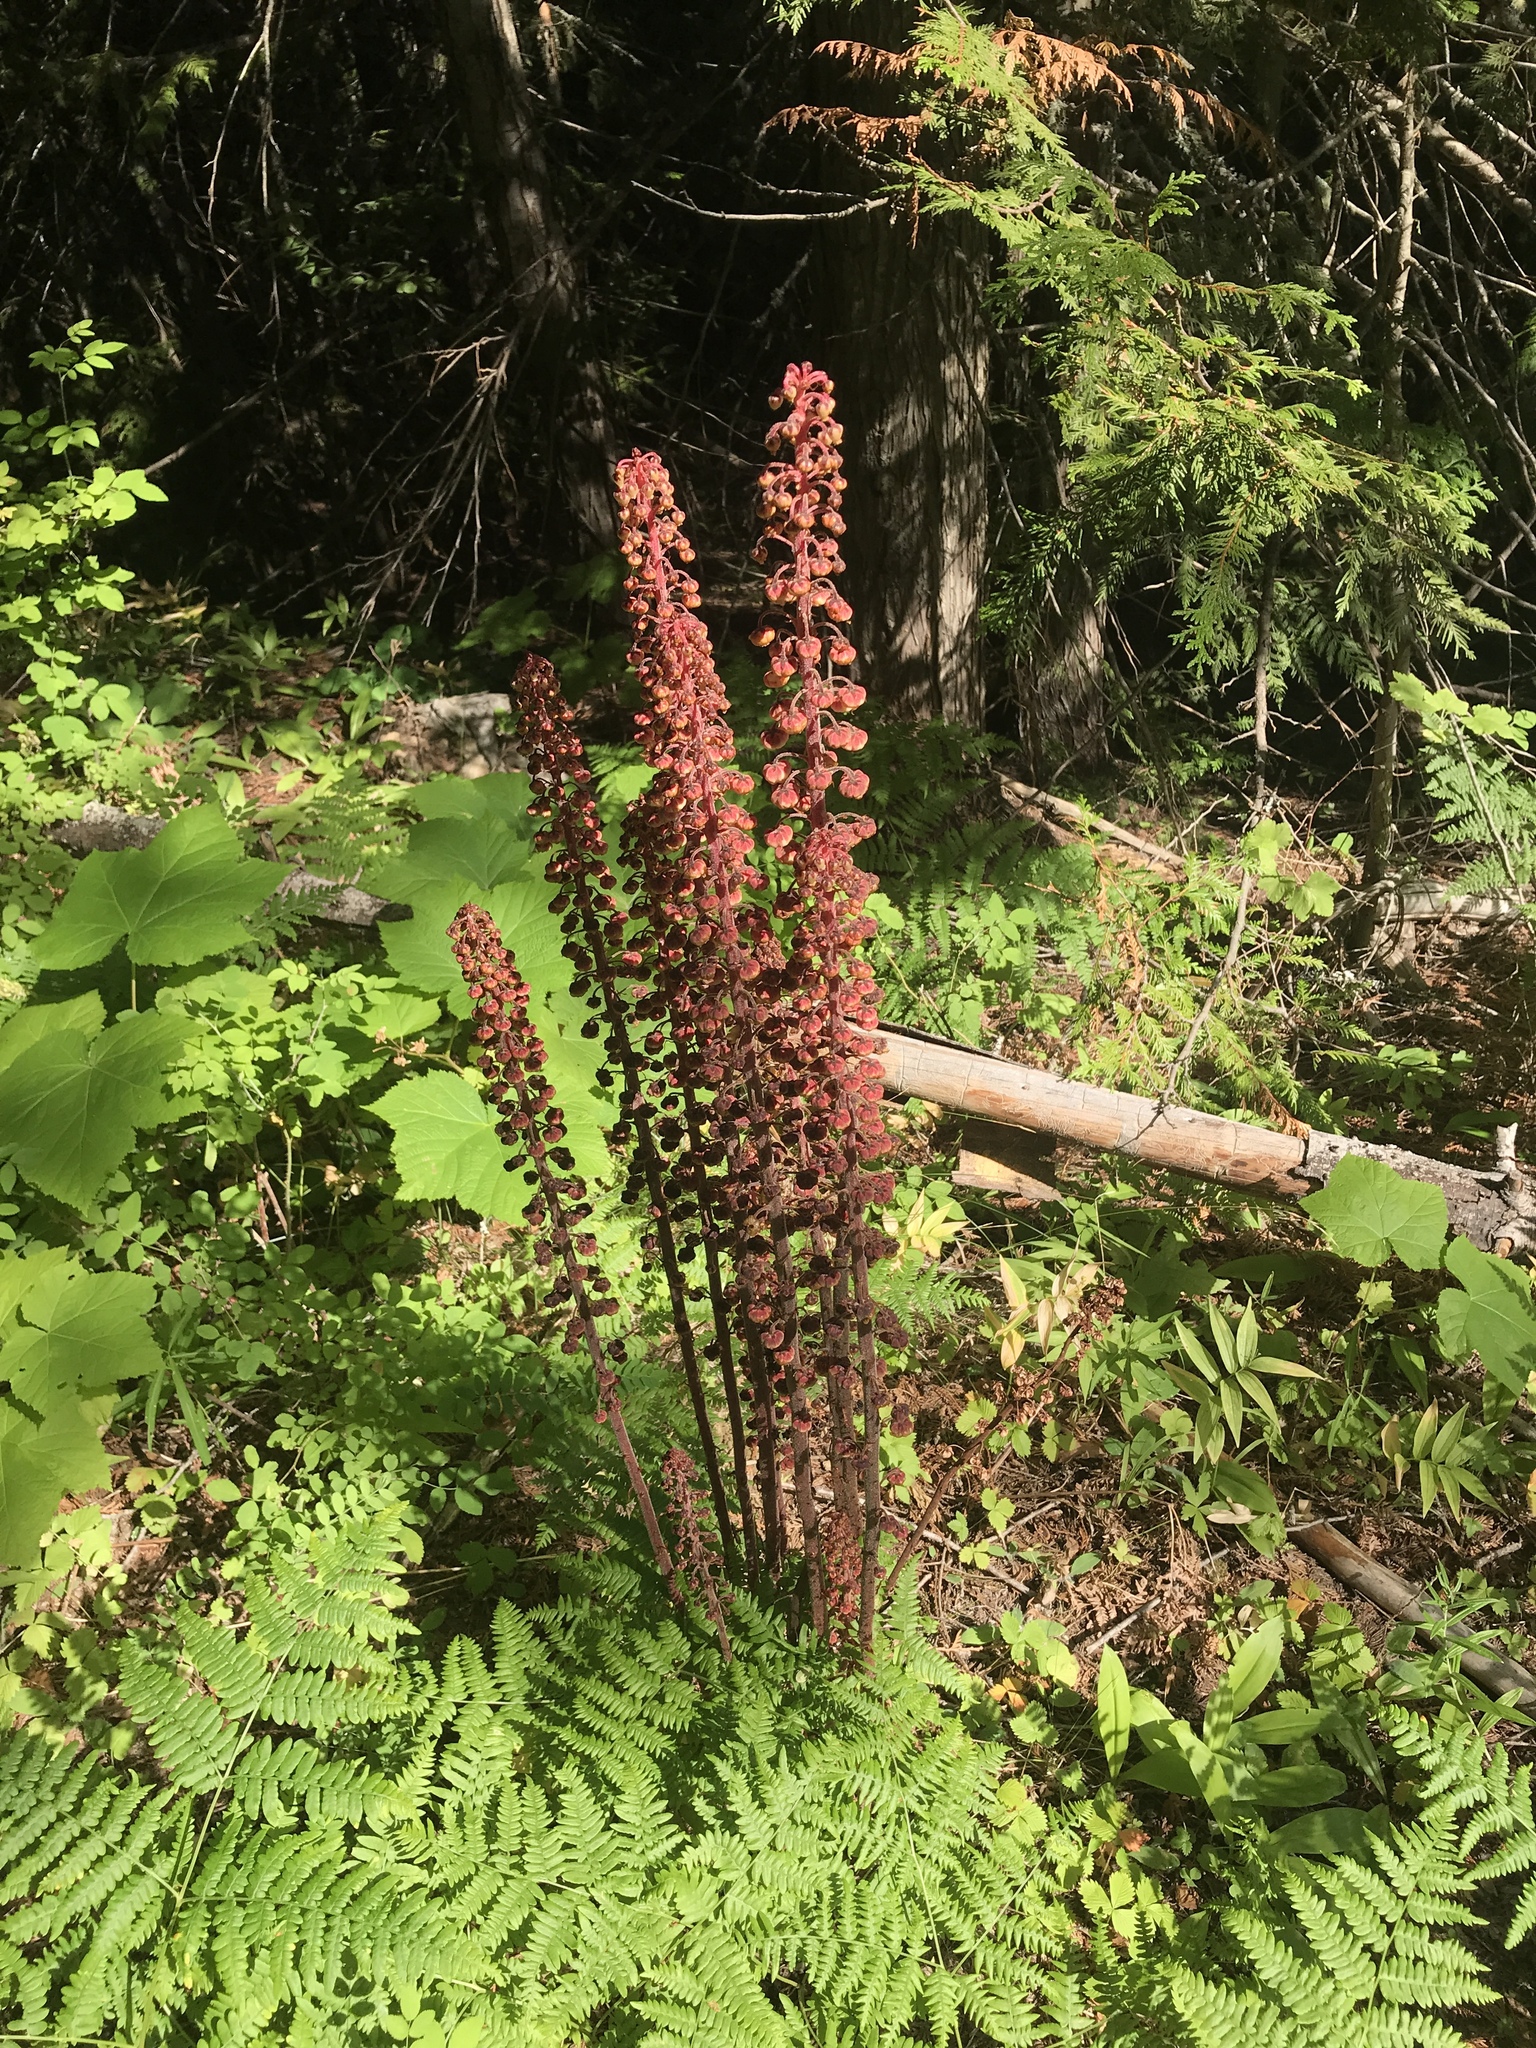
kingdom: Plantae
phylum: Tracheophyta
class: Magnoliopsida
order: Ericales
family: Ericaceae
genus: Pterospora
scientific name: Pterospora andromedea
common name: Giant bird's-nest
